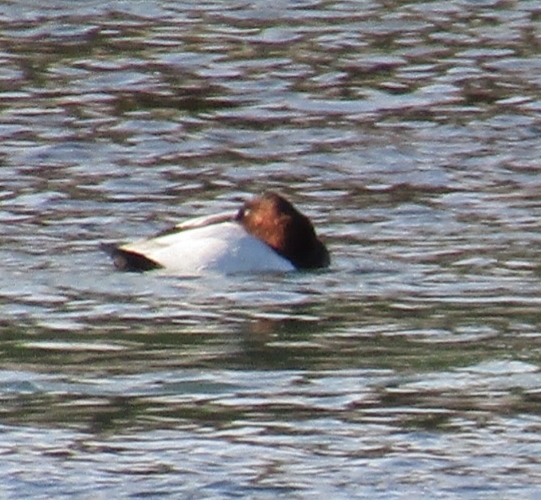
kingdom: Animalia
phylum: Chordata
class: Aves
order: Anseriformes
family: Anatidae
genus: Aythya
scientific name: Aythya valisineria
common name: Canvasback
